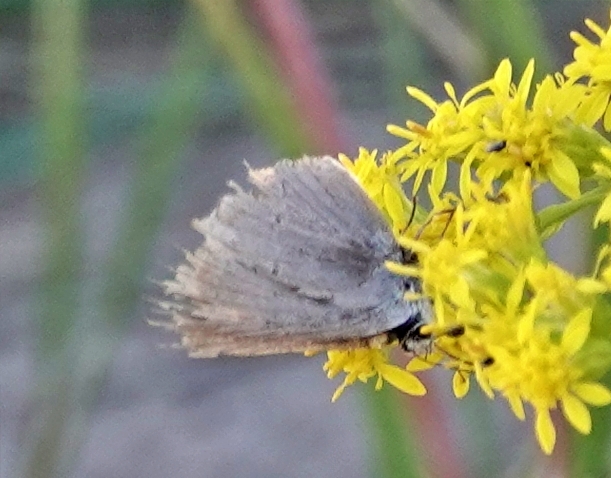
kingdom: Animalia
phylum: Arthropoda
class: Insecta
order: Lepidoptera
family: Lycaenidae
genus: Strymon
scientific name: Strymon melinus
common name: Gray hairstreak
